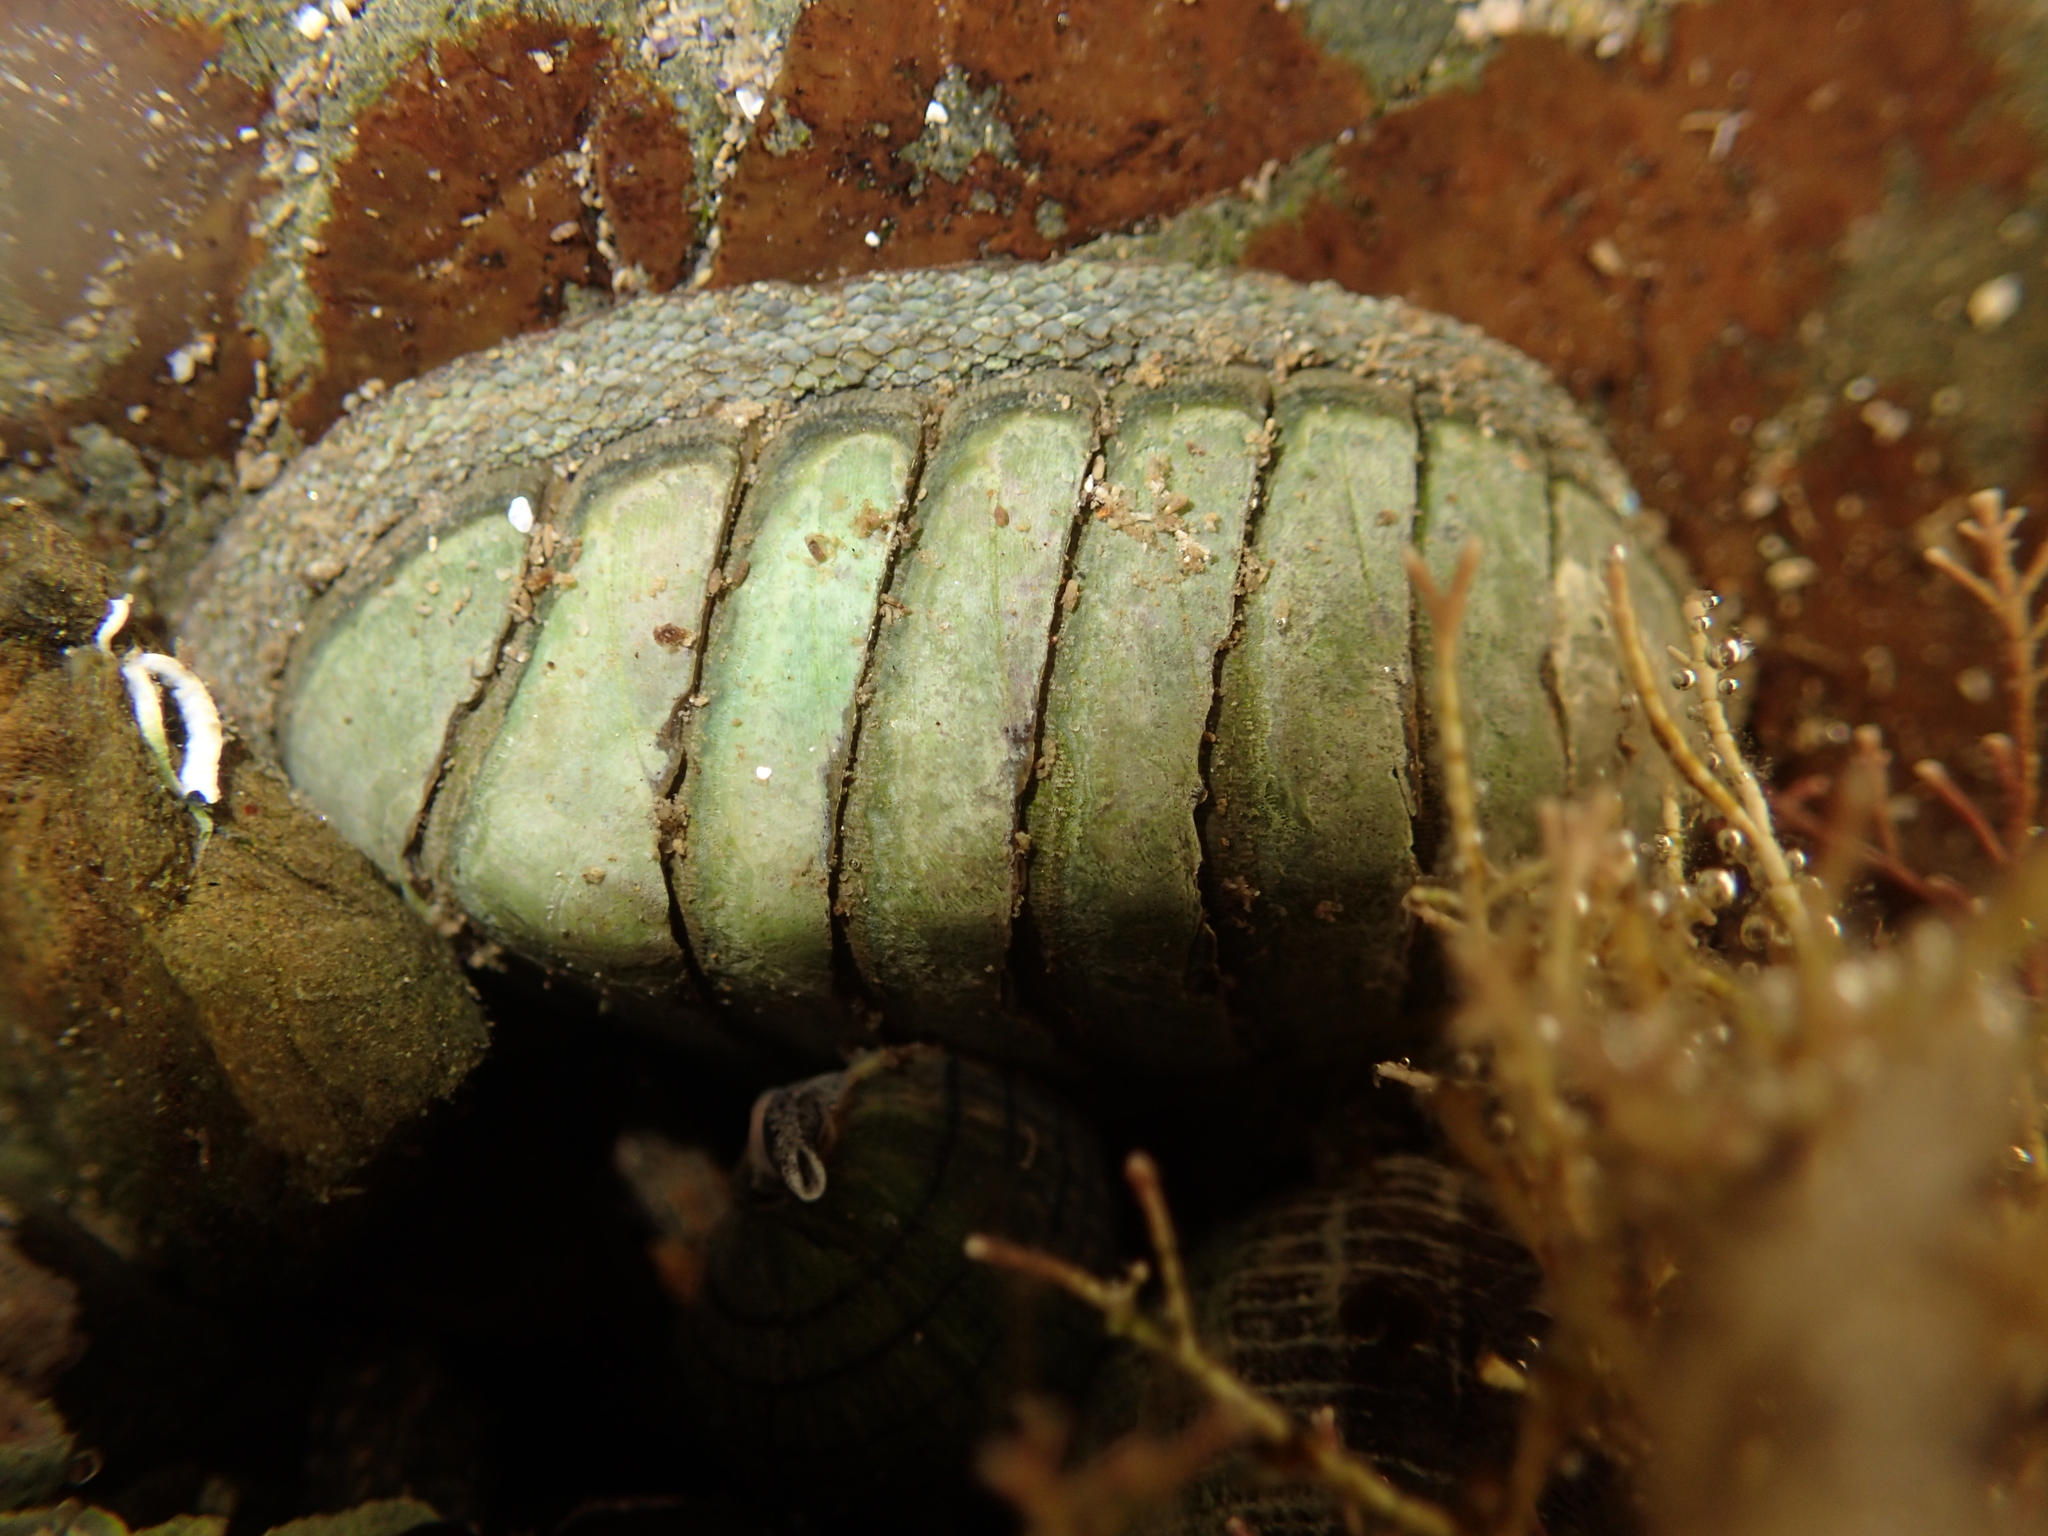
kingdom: Animalia
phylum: Mollusca
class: Polyplacophora
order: Chitonida
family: Chitonidae
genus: Chiton
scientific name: Chiton glaucus
